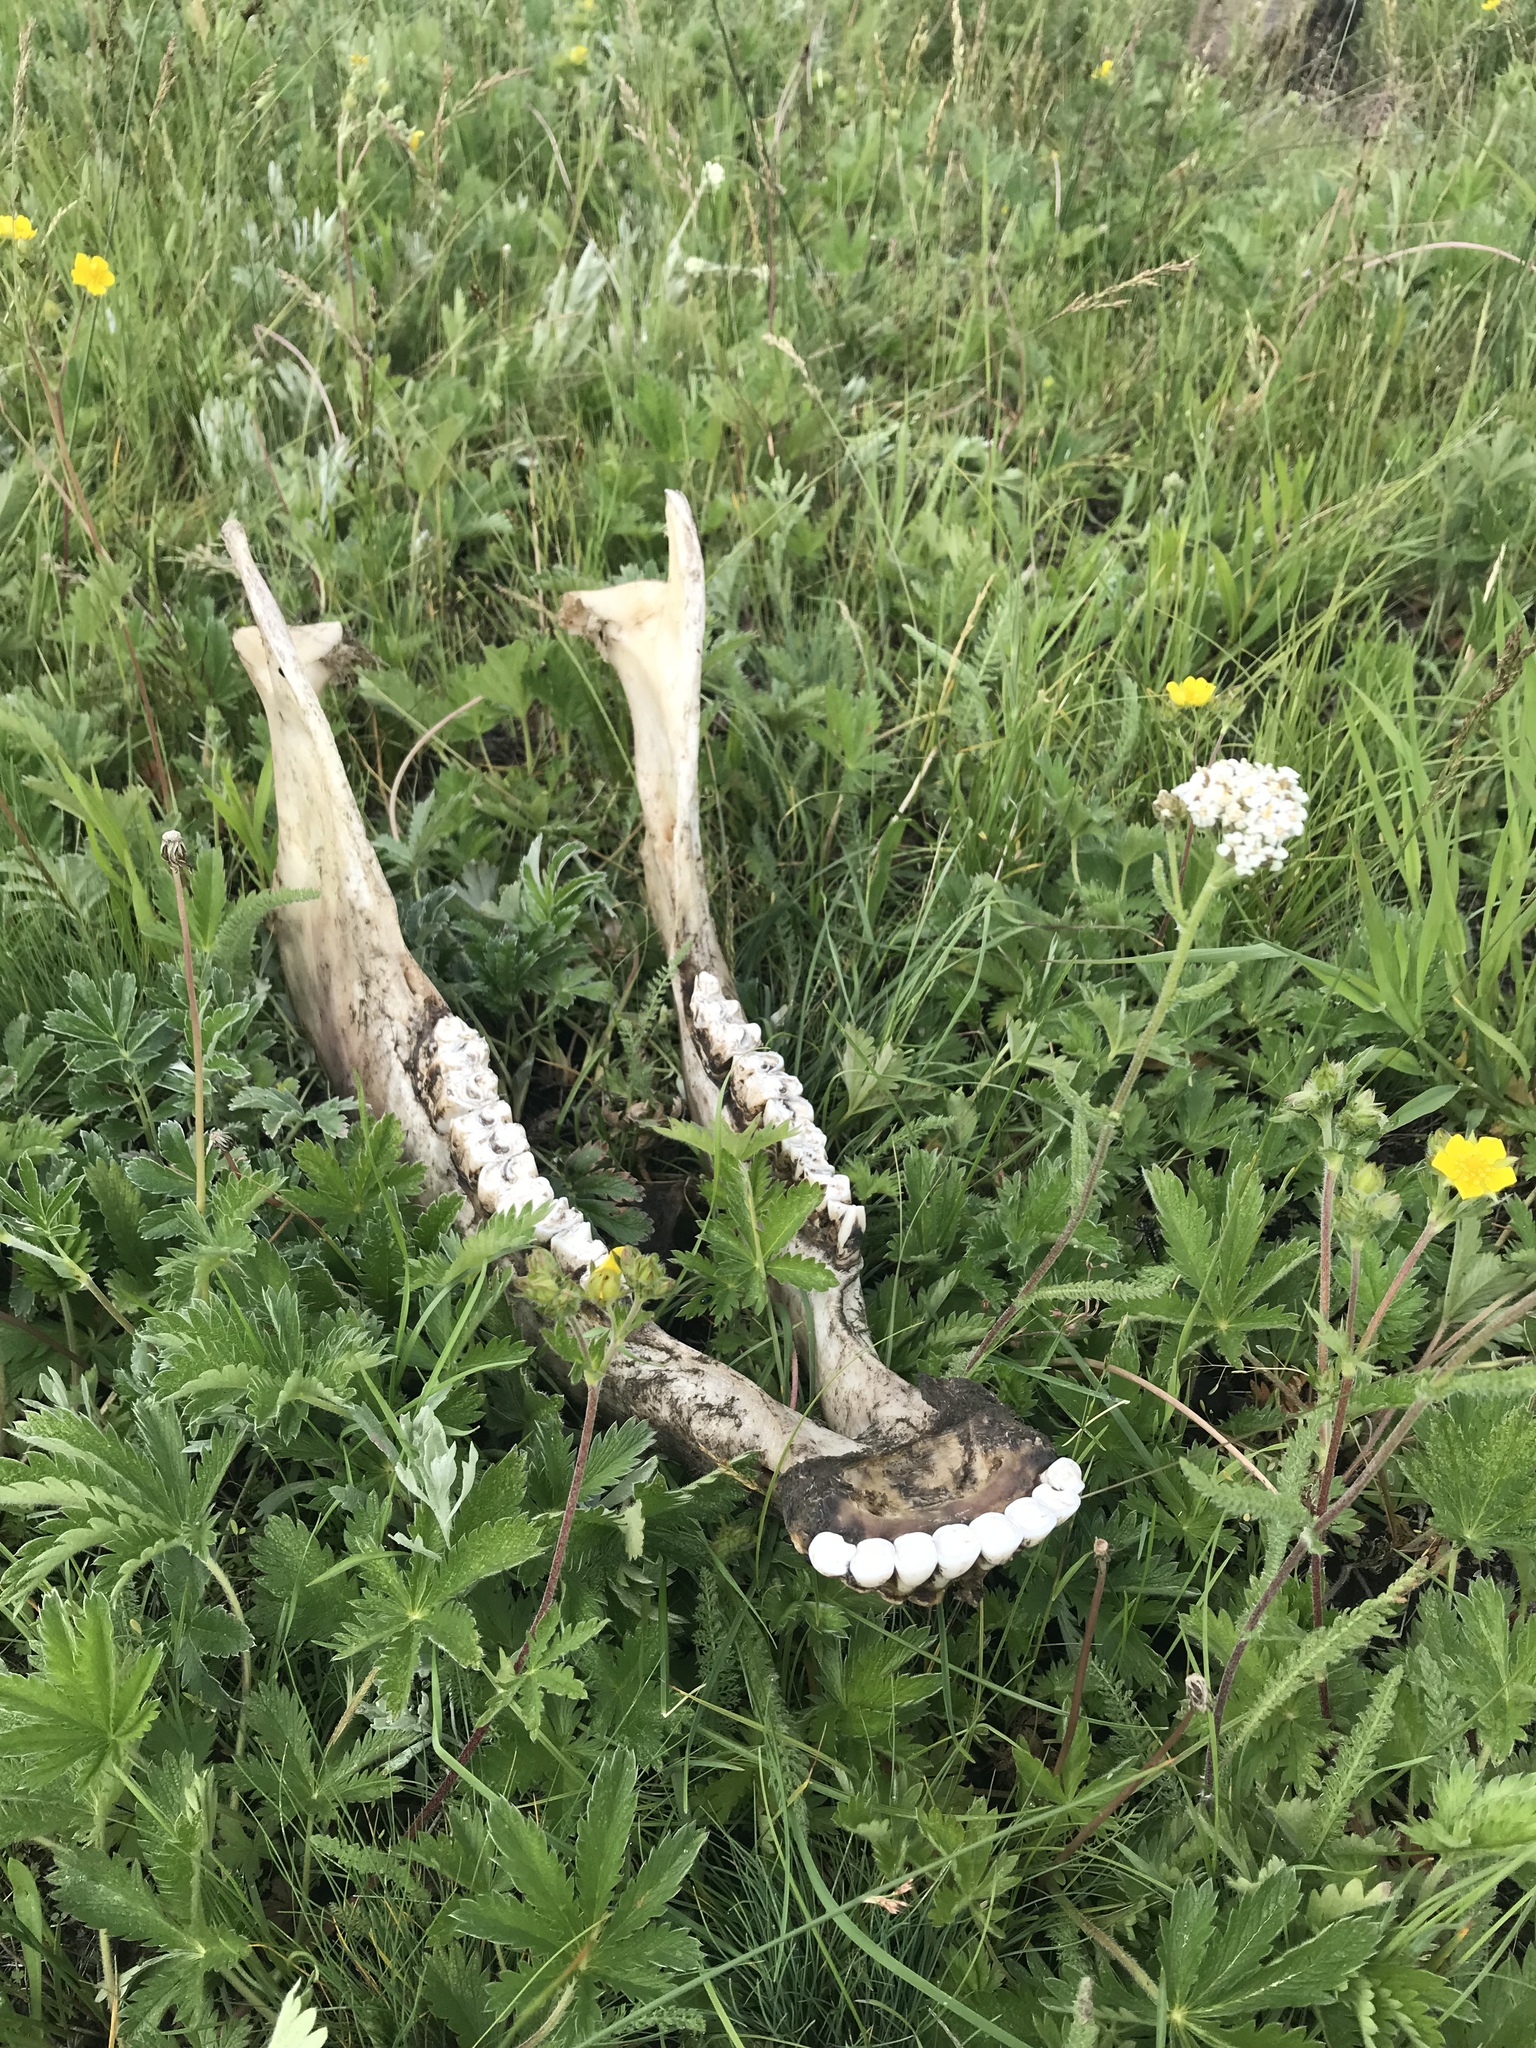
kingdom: Animalia
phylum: Chordata
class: Mammalia
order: Artiodactyla
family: Bovidae
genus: Bison
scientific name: Bison bison
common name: American bison
